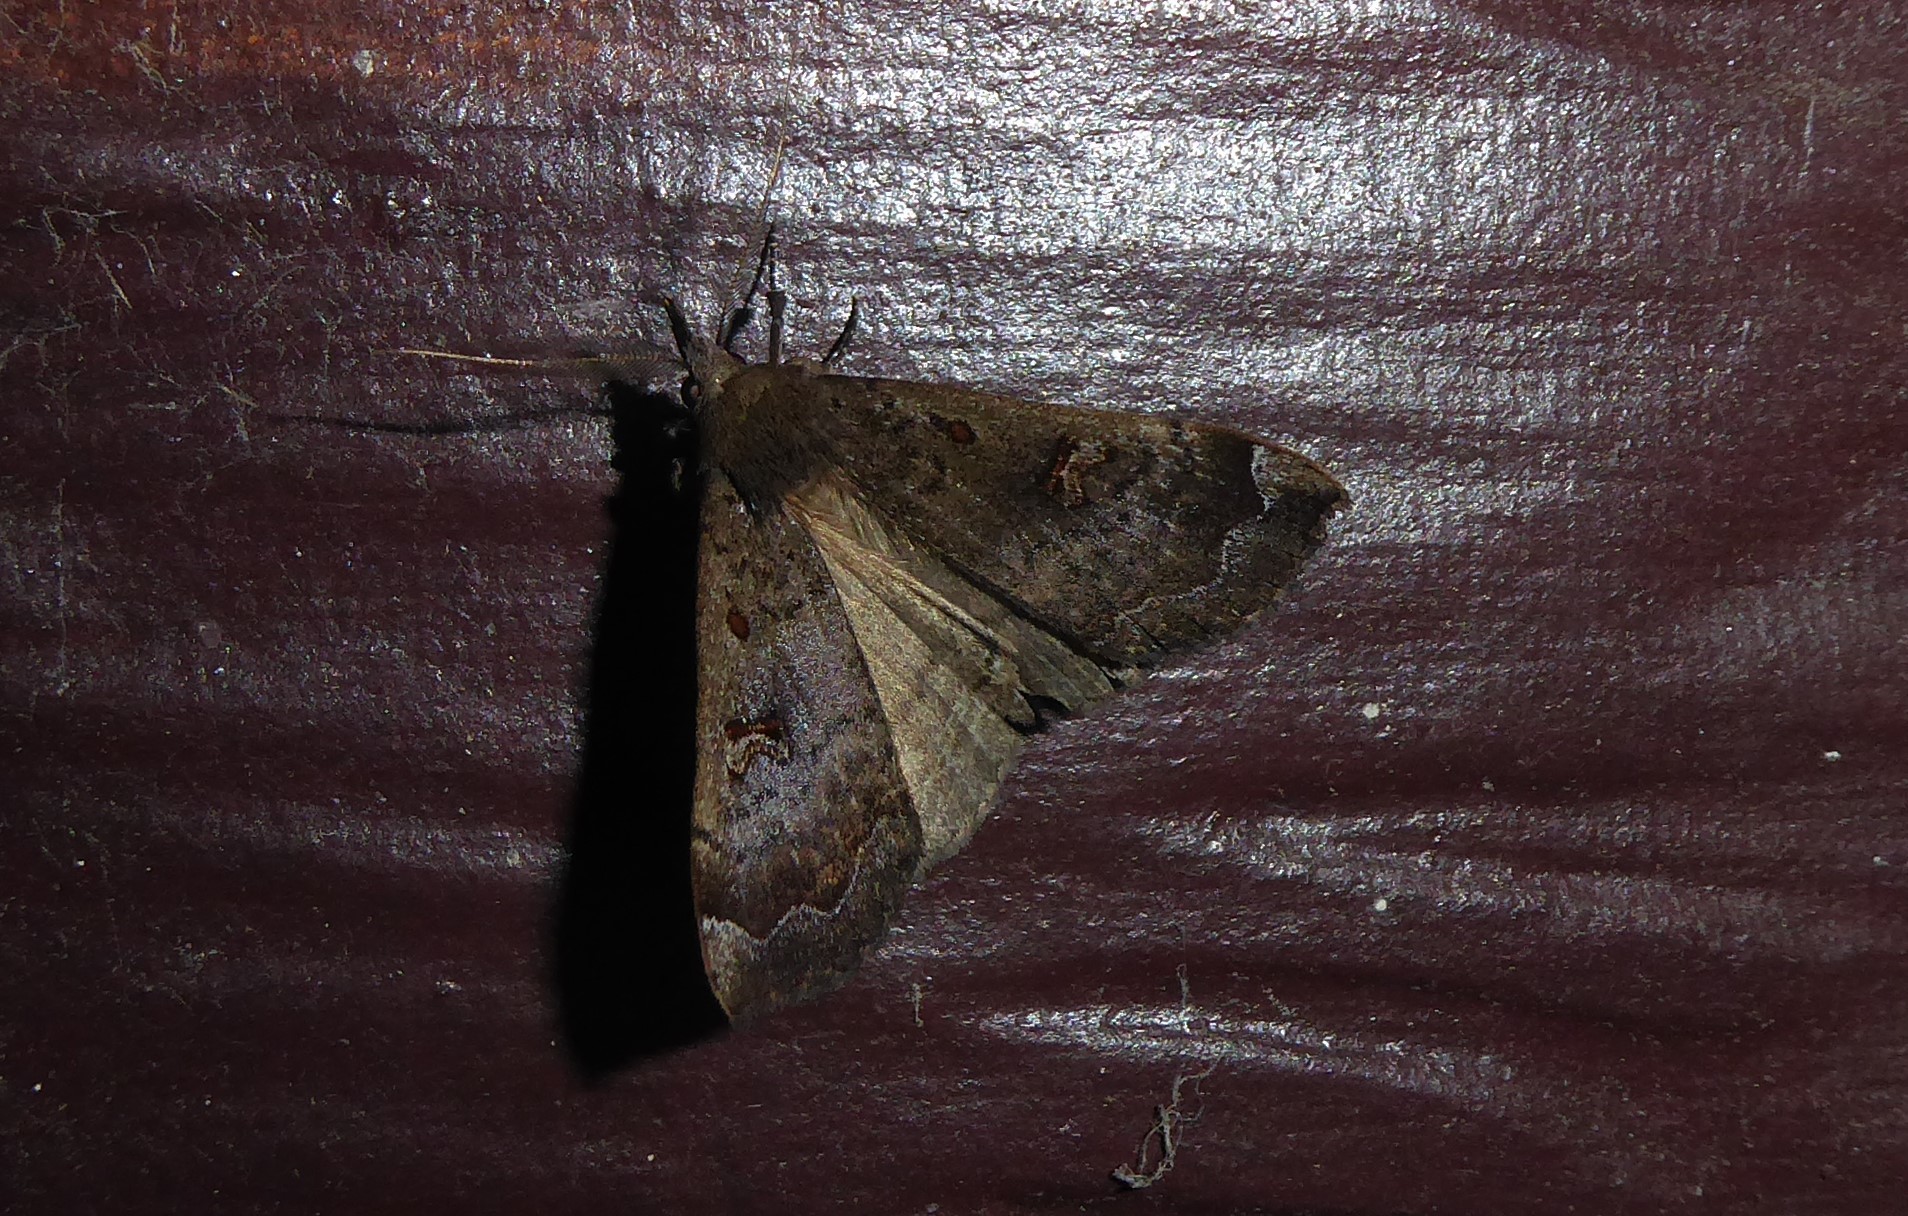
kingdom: Animalia
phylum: Arthropoda
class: Insecta
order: Lepidoptera
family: Erebidae
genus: Rhapsa
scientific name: Rhapsa scotosialis
